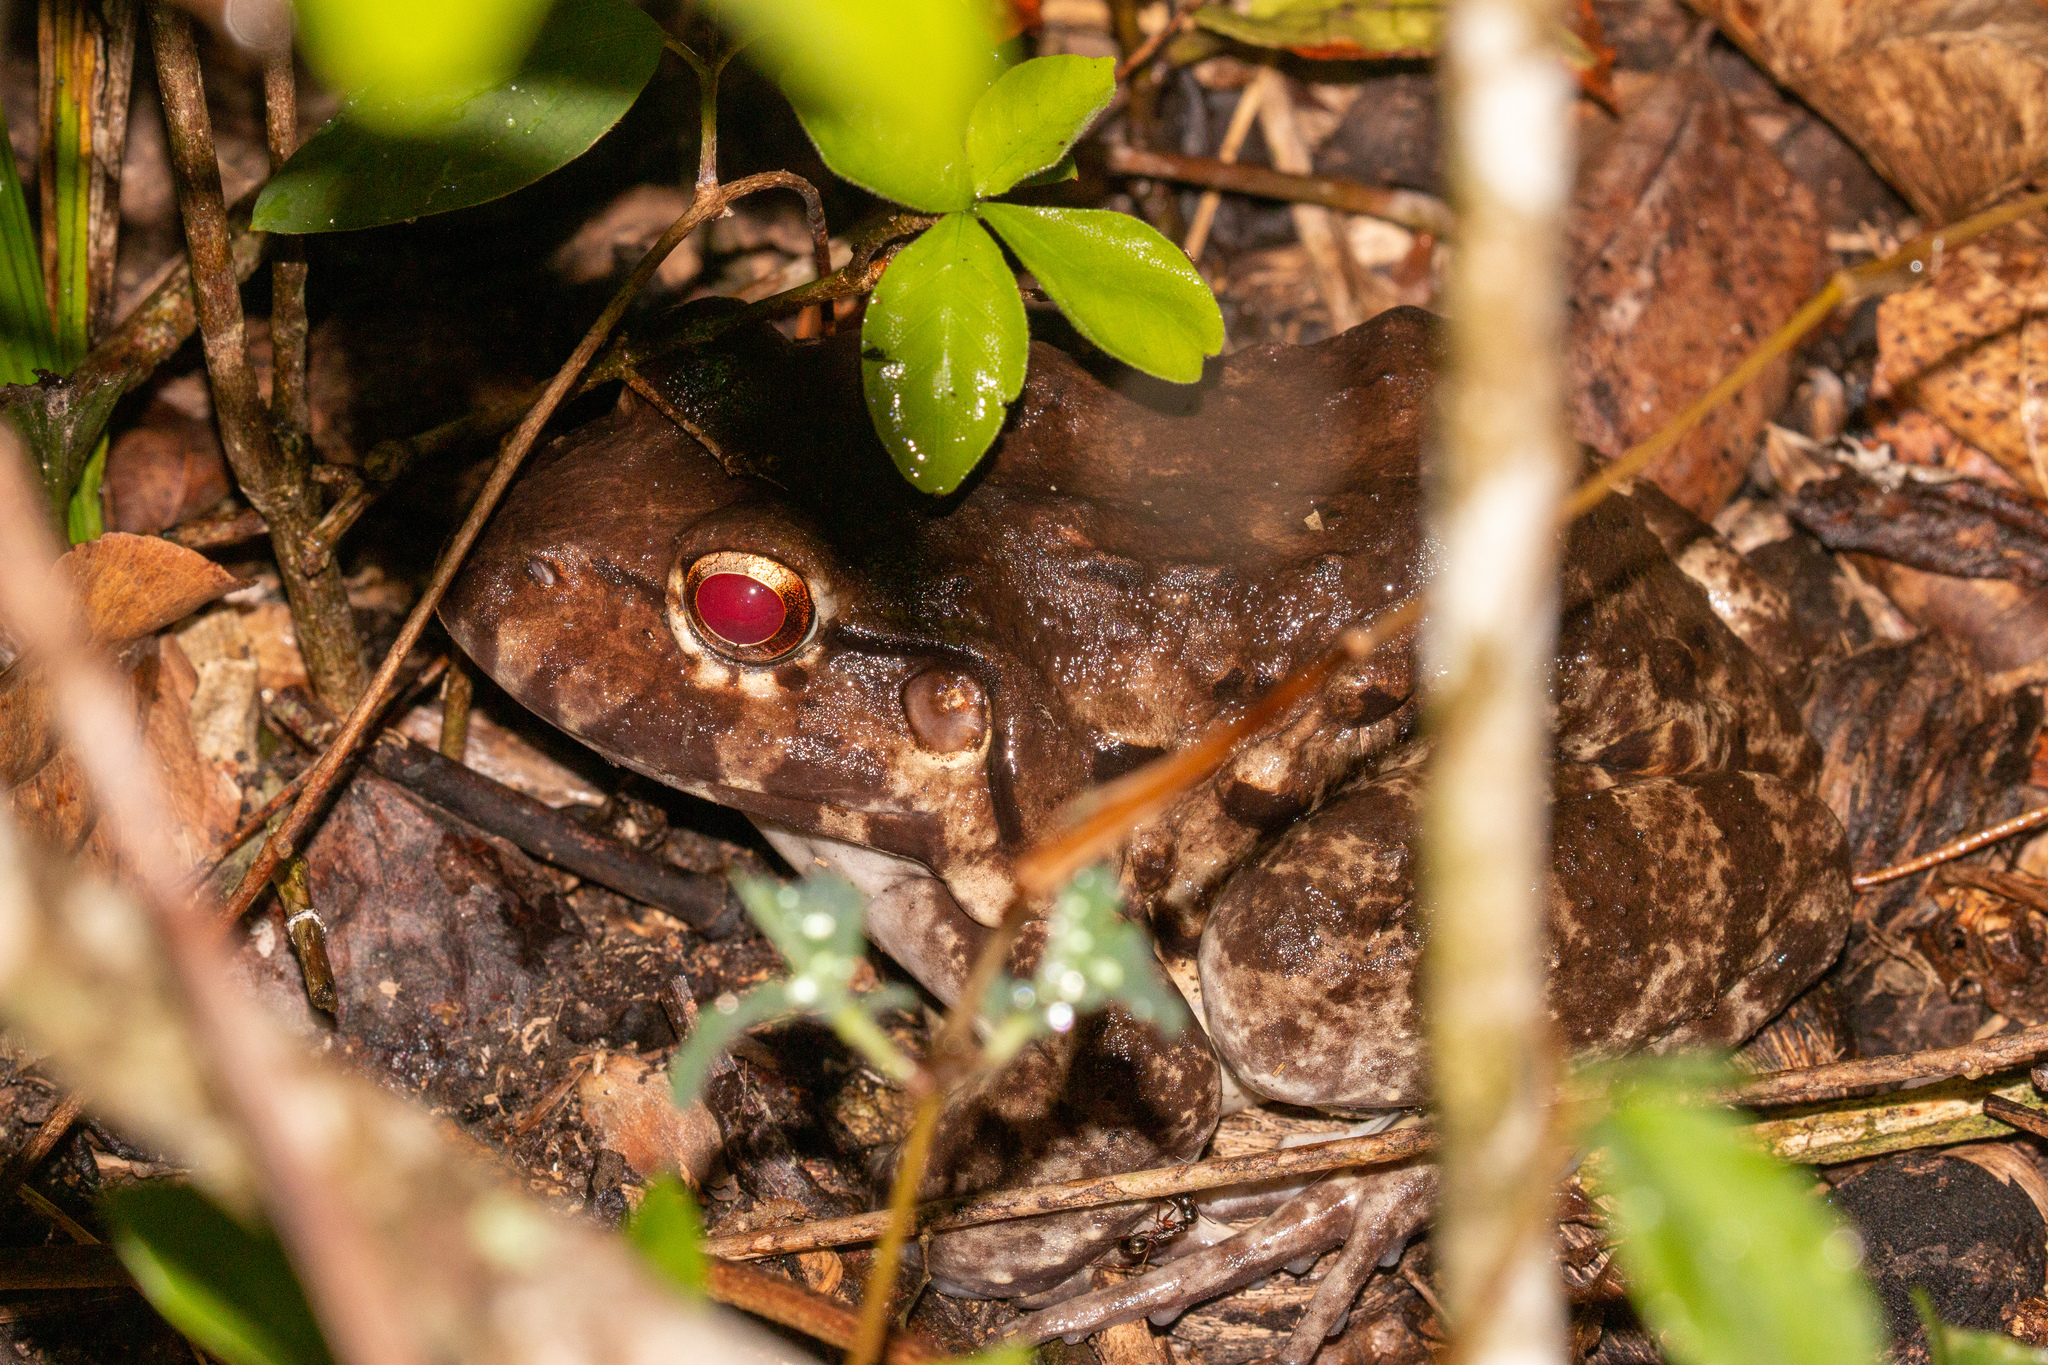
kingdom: Animalia
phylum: Chordata
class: Amphibia
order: Anura
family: Leptodactylidae
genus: Leptodactylus
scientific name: Leptodactylus vastus
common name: Northeastern pepper frog
